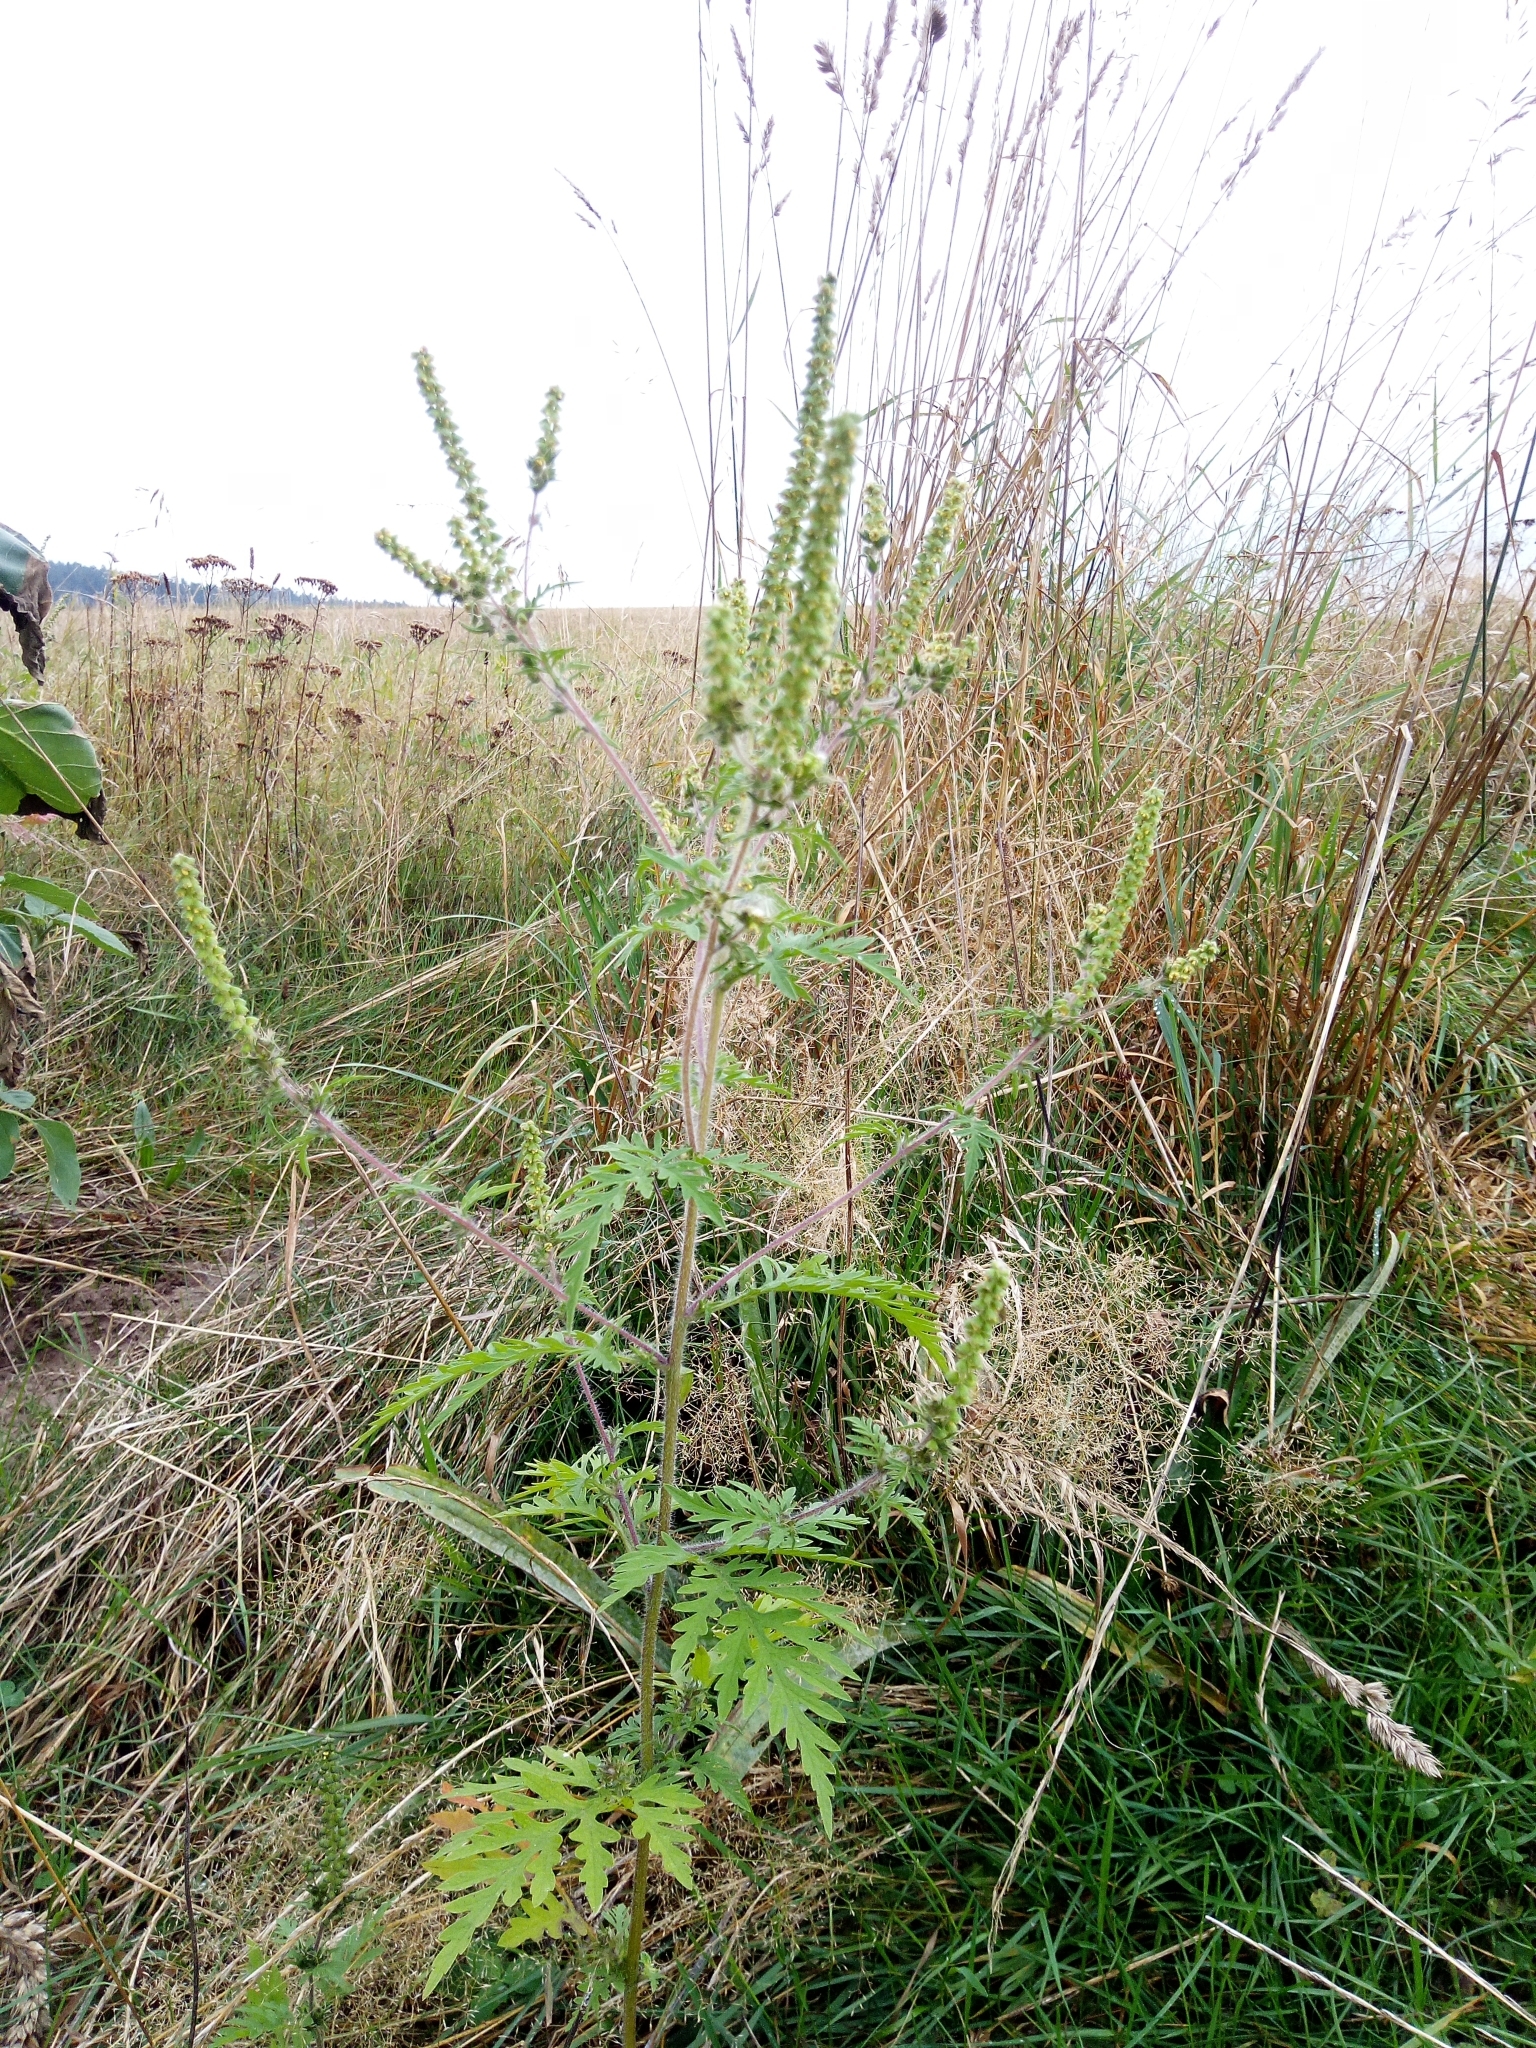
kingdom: Plantae
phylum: Tracheophyta
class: Magnoliopsida
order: Asterales
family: Asteraceae
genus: Ambrosia
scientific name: Ambrosia artemisiifolia
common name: Annual ragweed
